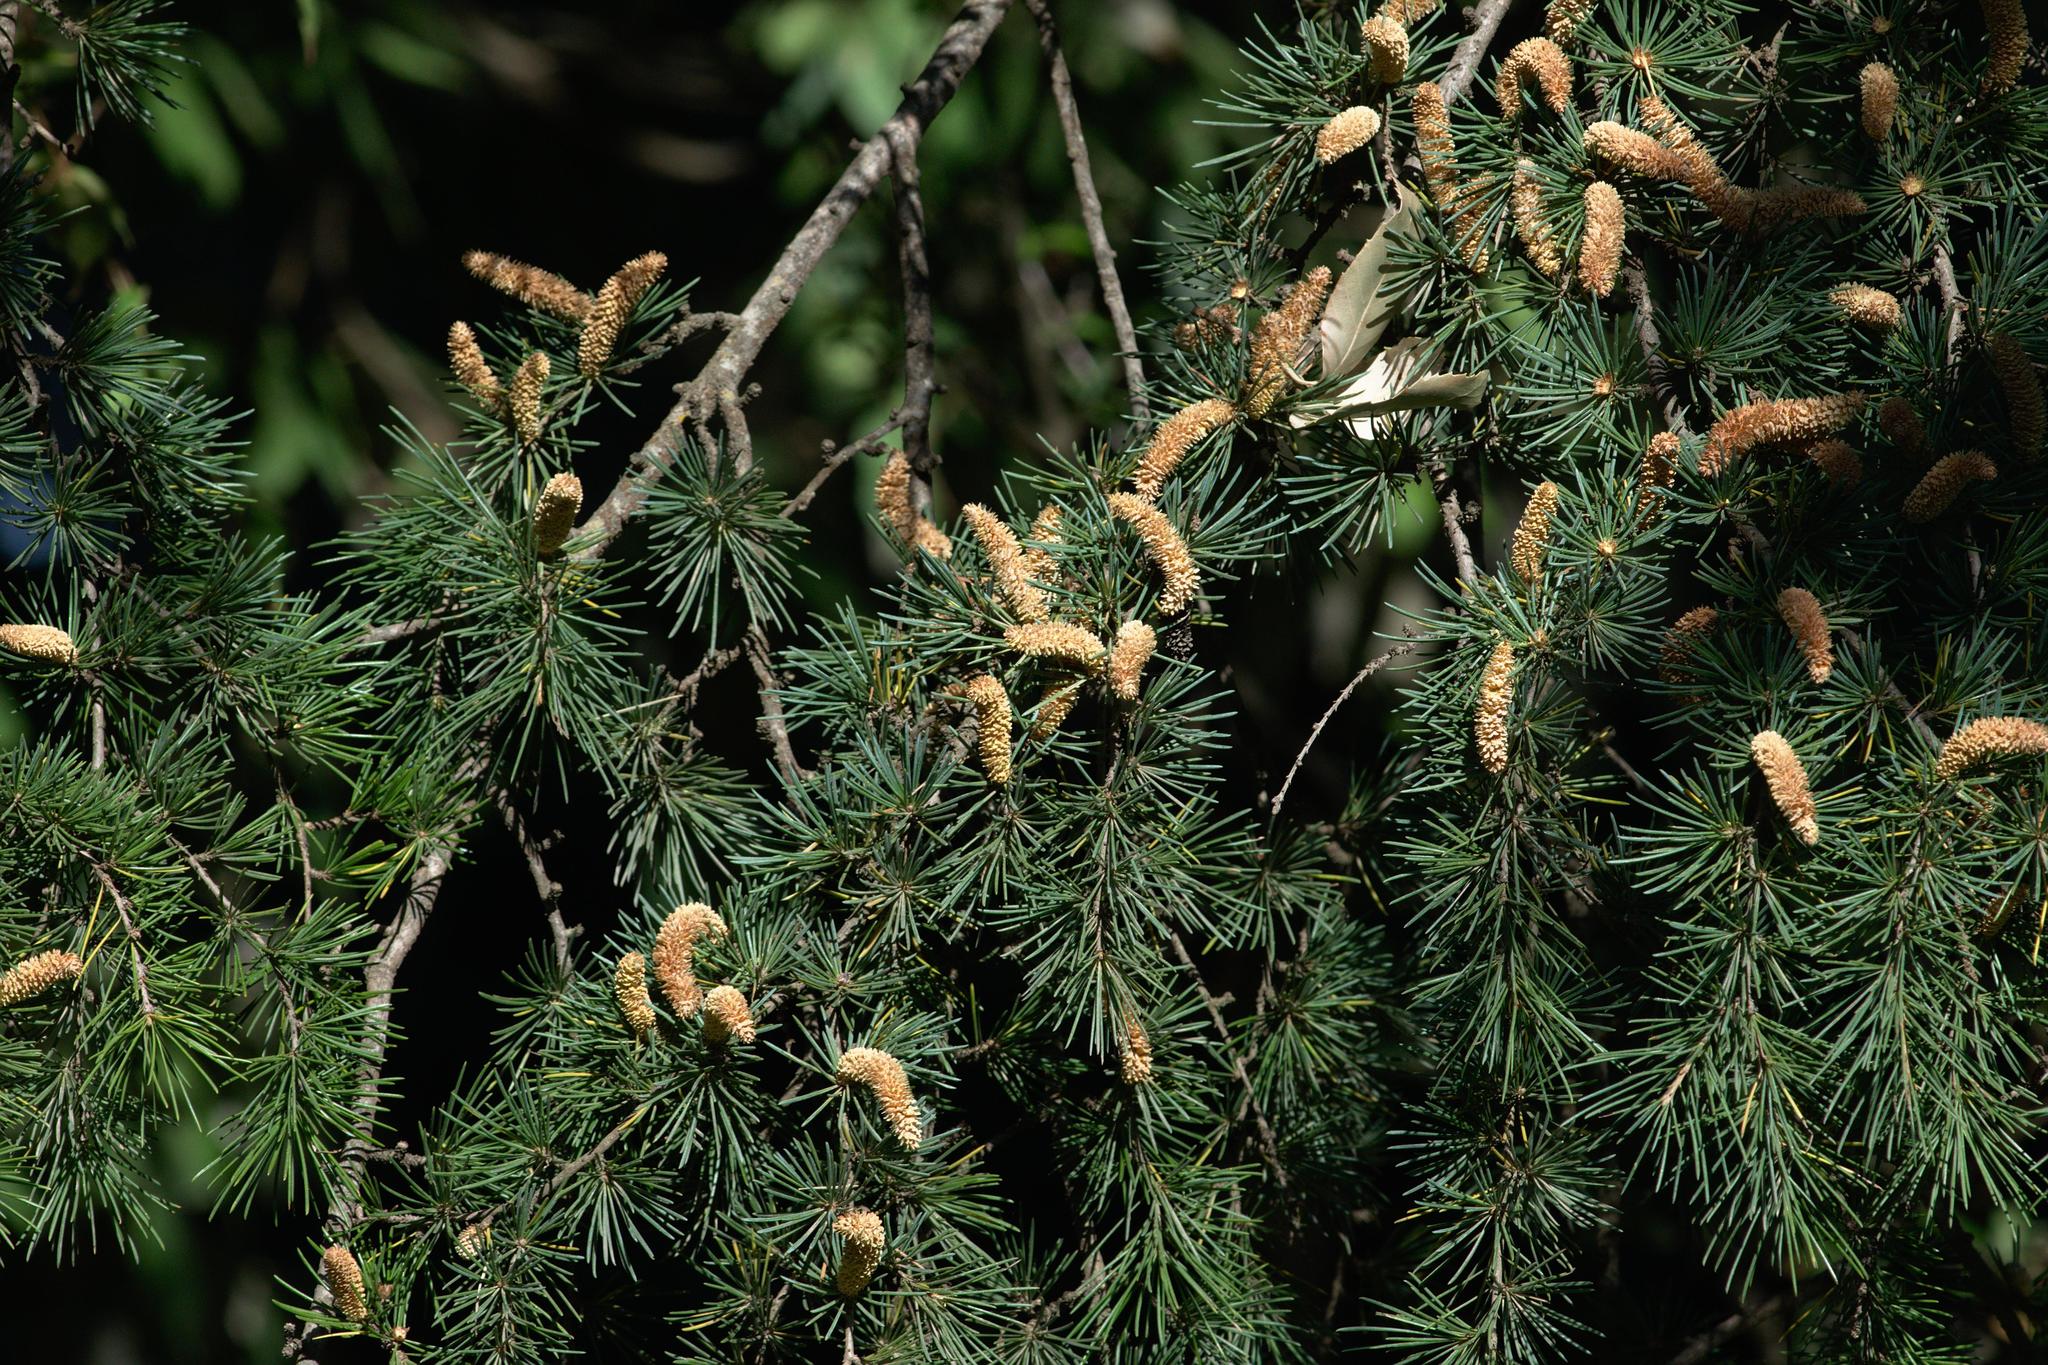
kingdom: Plantae
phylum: Tracheophyta
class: Pinopsida
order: Pinales
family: Pinaceae
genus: Cedrus
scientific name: Cedrus deodara
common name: Deodar
